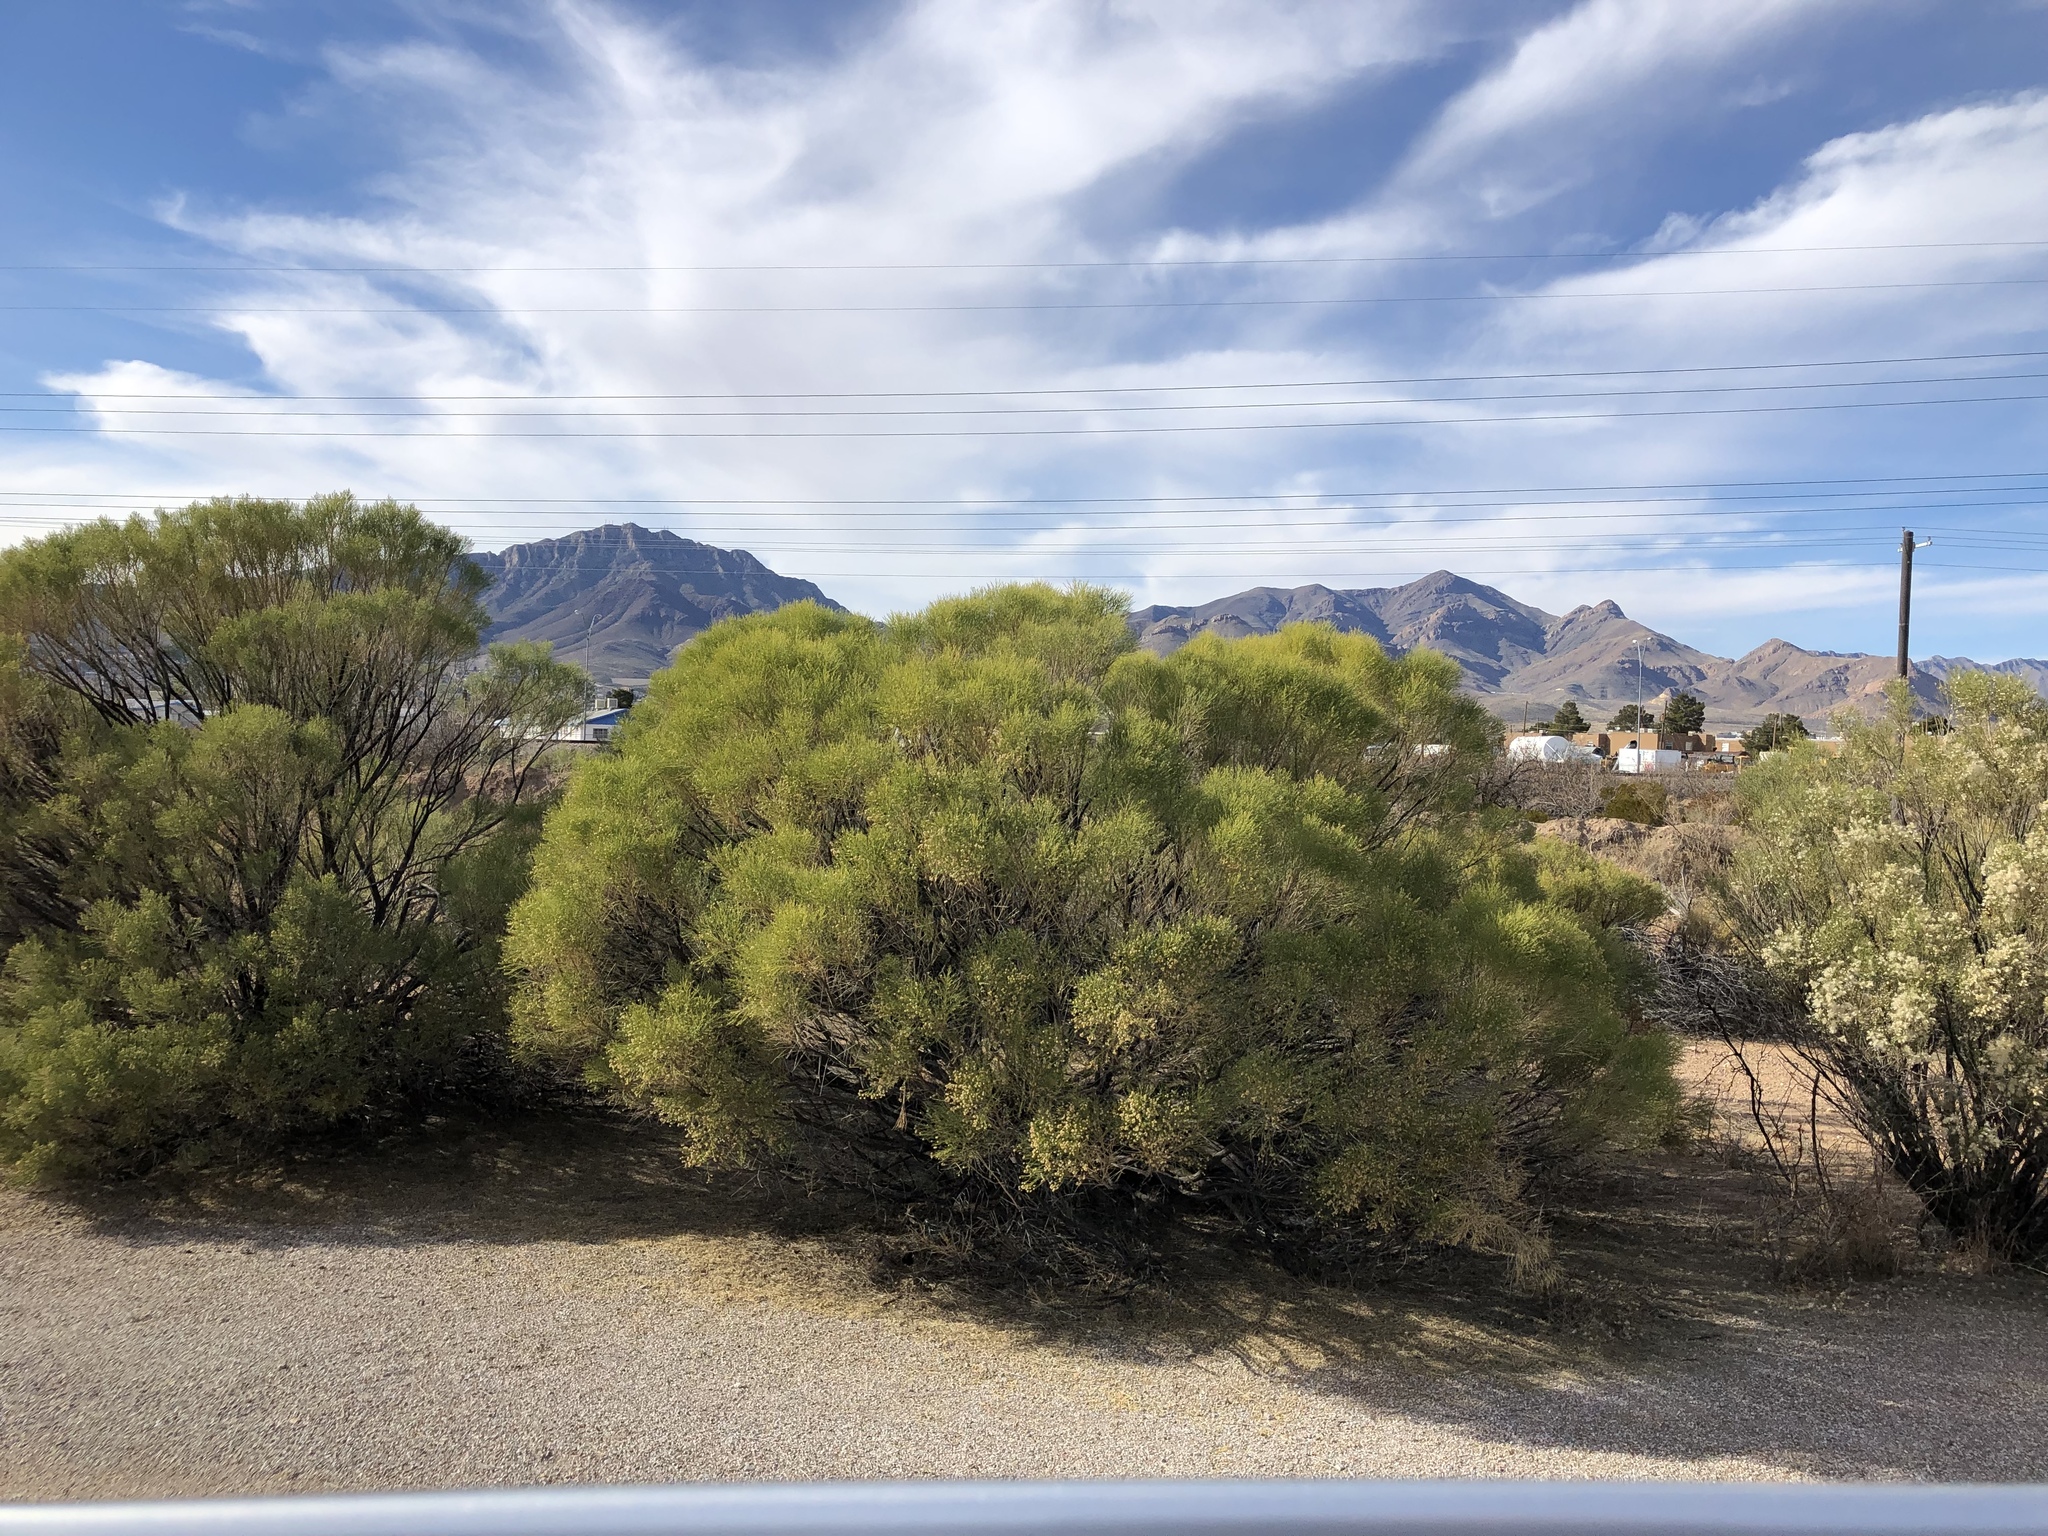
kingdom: Plantae
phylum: Tracheophyta
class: Magnoliopsida
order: Asterales
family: Asteraceae
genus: Baccharis
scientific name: Baccharis sarothroides
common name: Desert-broom
